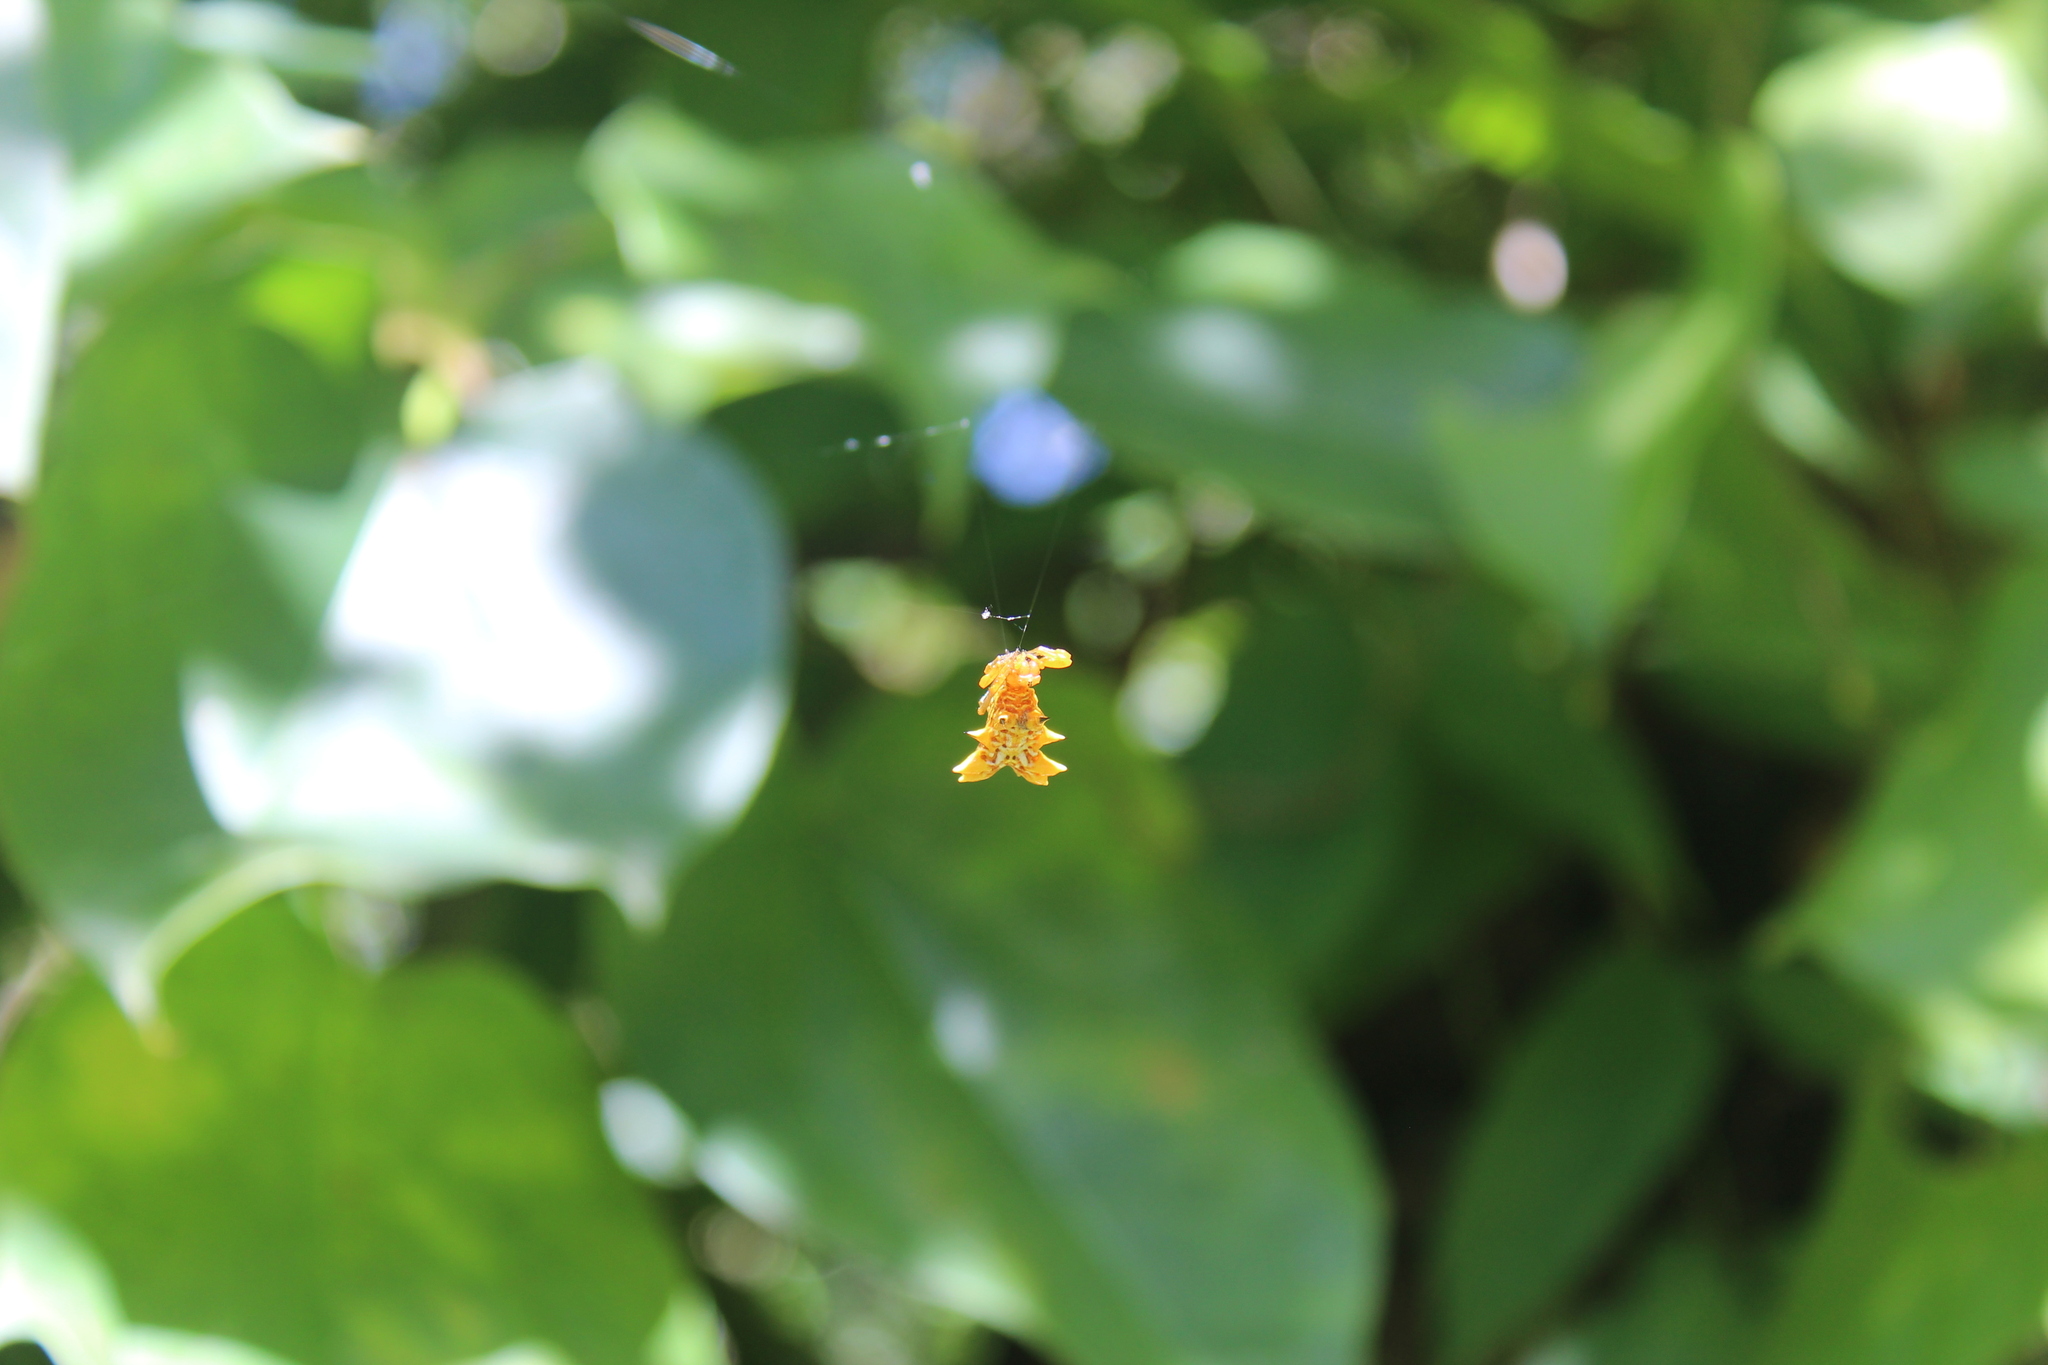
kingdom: Animalia
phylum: Arthropoda
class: Arachnida
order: Araneae
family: Araneidae
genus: Micrathena
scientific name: Micrathena gracilis
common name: Orb weavers
